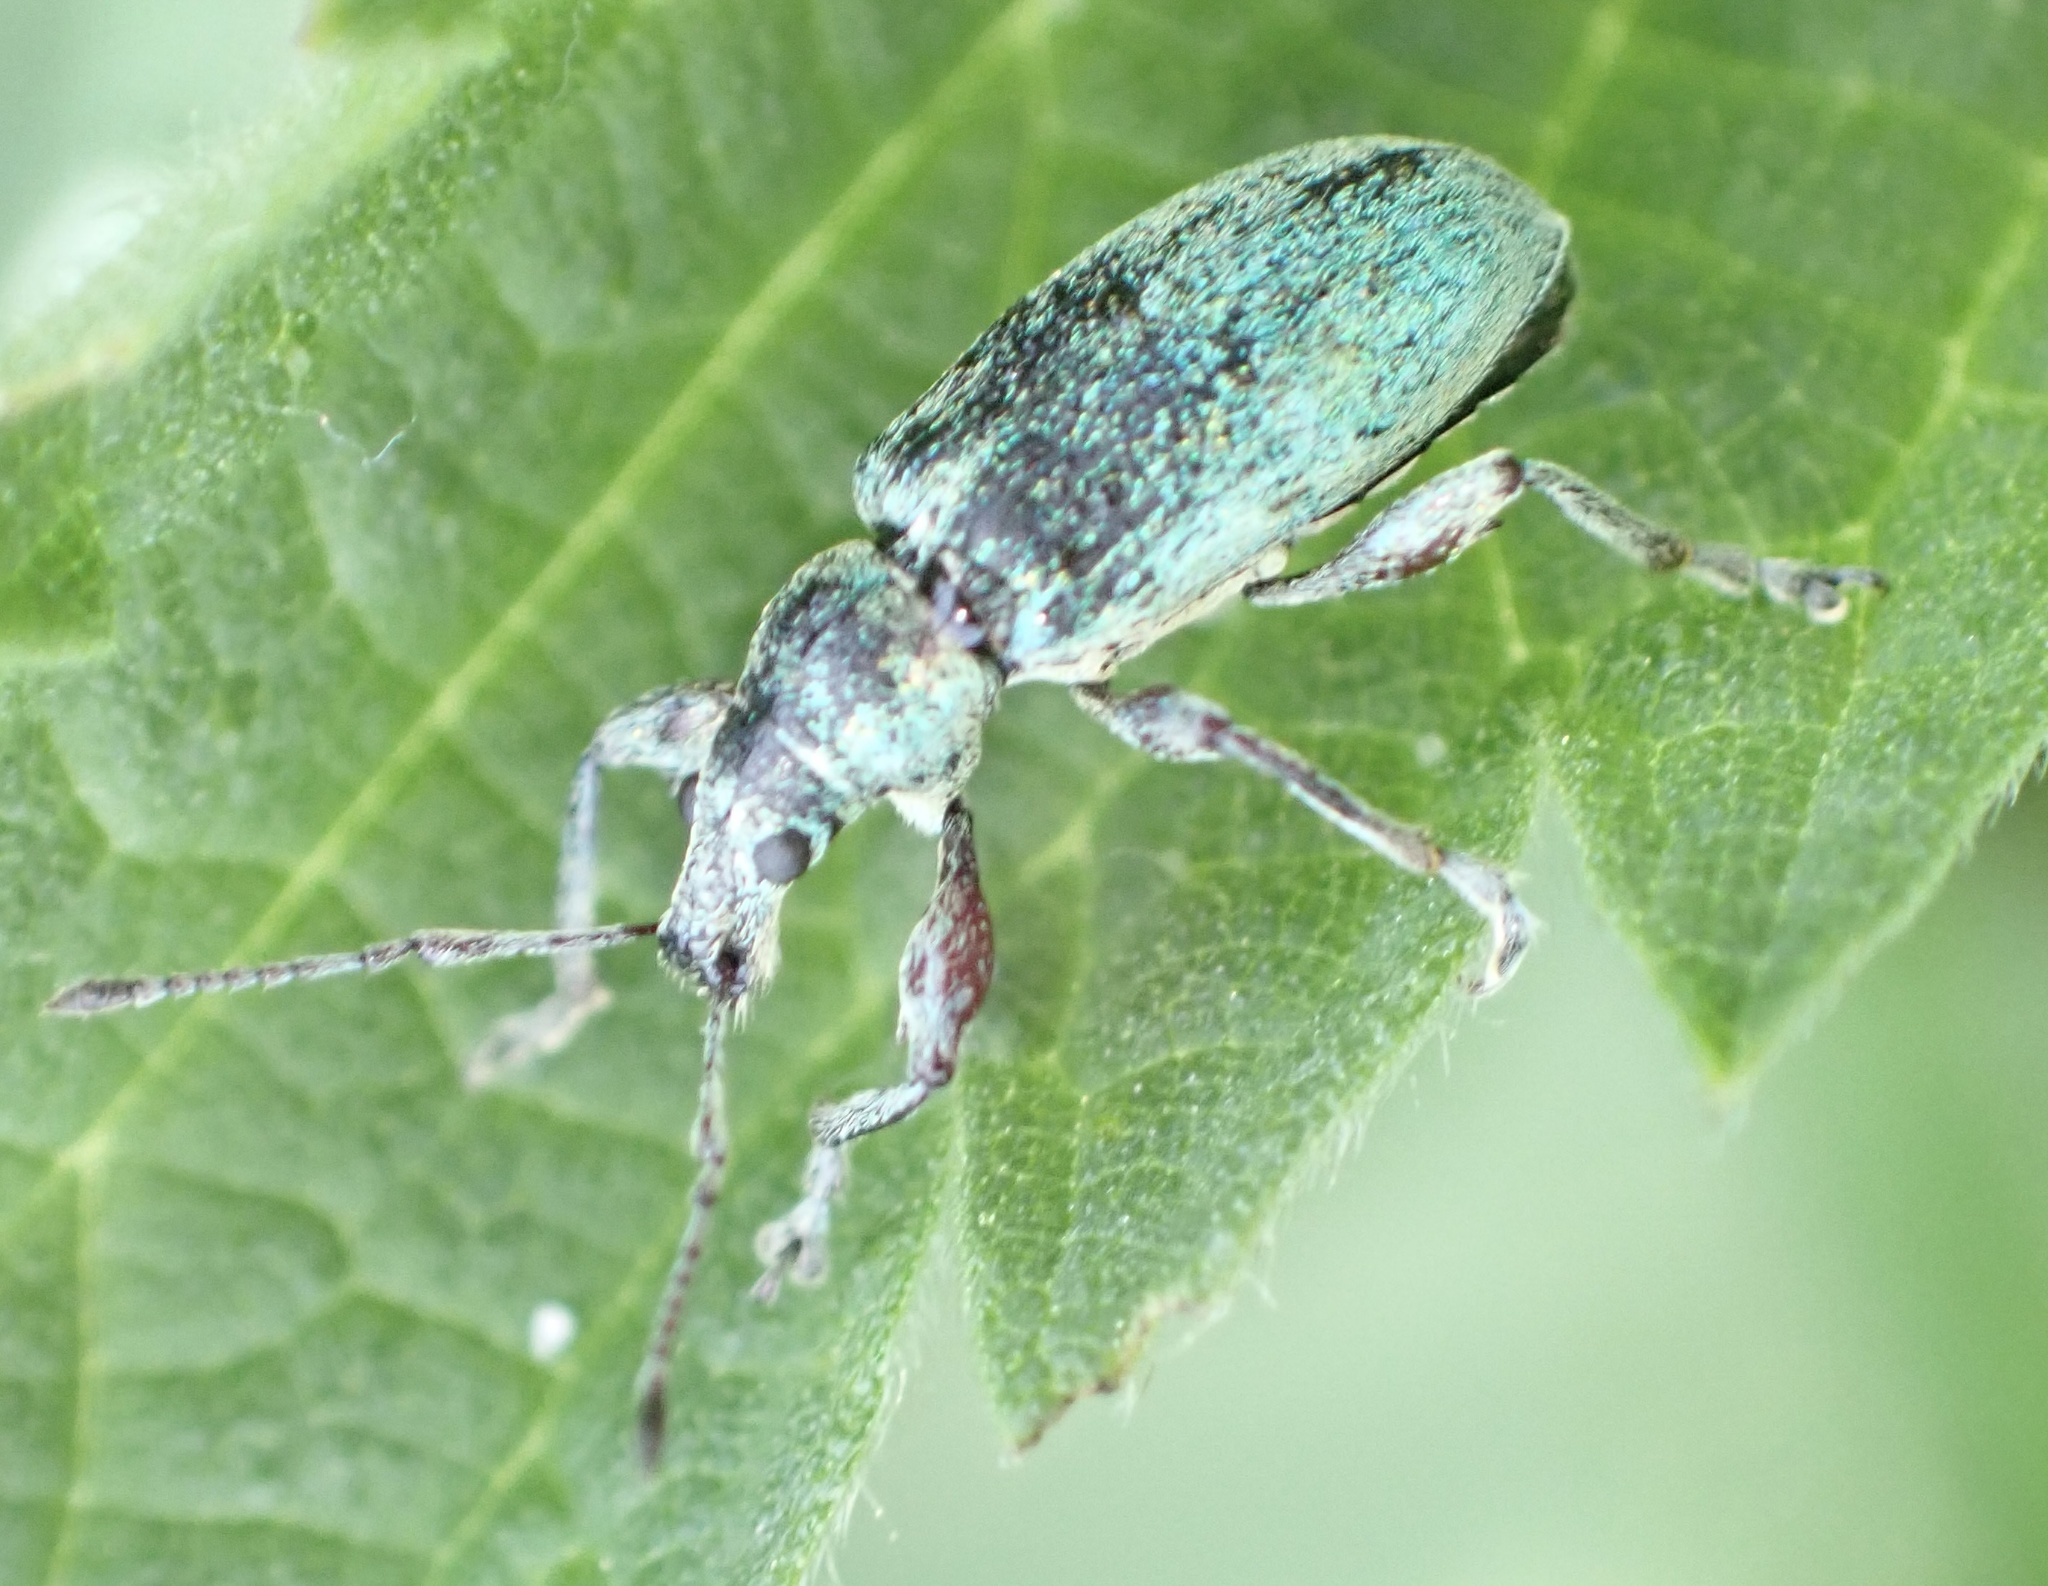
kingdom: Animalia
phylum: Arthropoda
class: Insecta
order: Coleoptera
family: Curculionidae
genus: Phyllobius
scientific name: Phyllobius pomaceus
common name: Green nettle weevil
